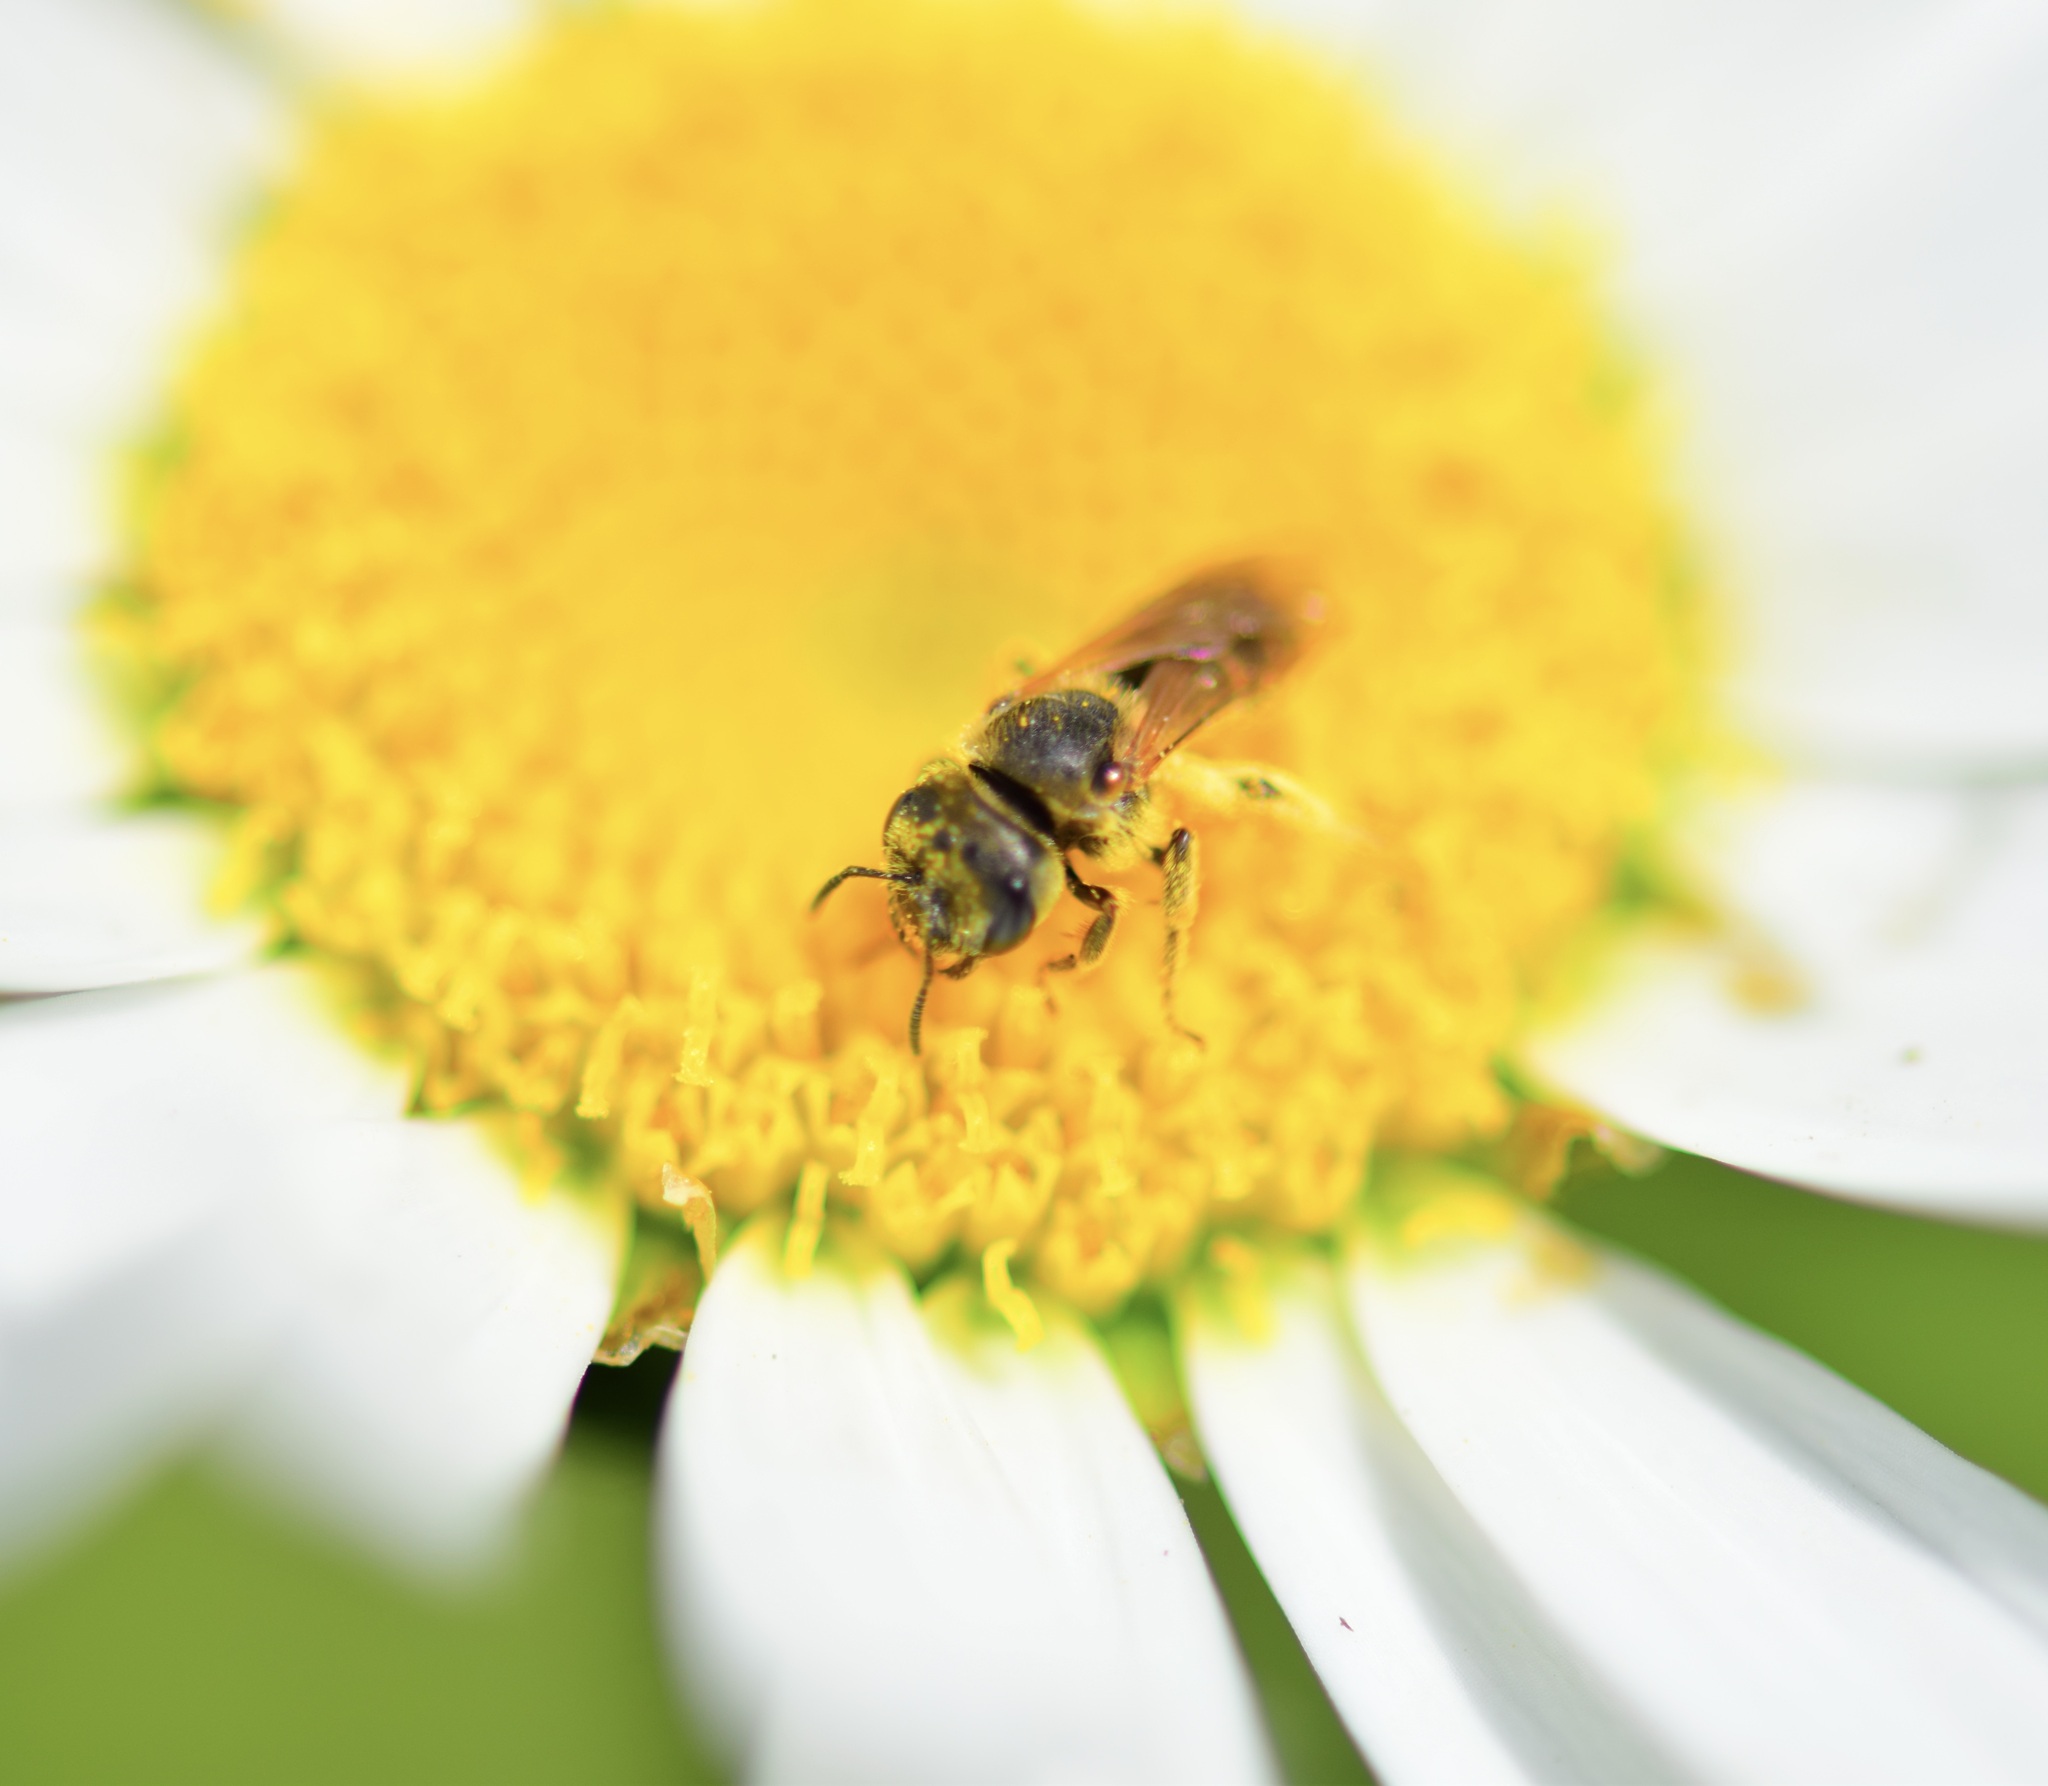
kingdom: Animalia
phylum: Arthropoda
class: Insecta
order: Hymenoptera
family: Halictidae
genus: Halictus
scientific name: Halictus ligatus
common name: Ligated furrow bee
